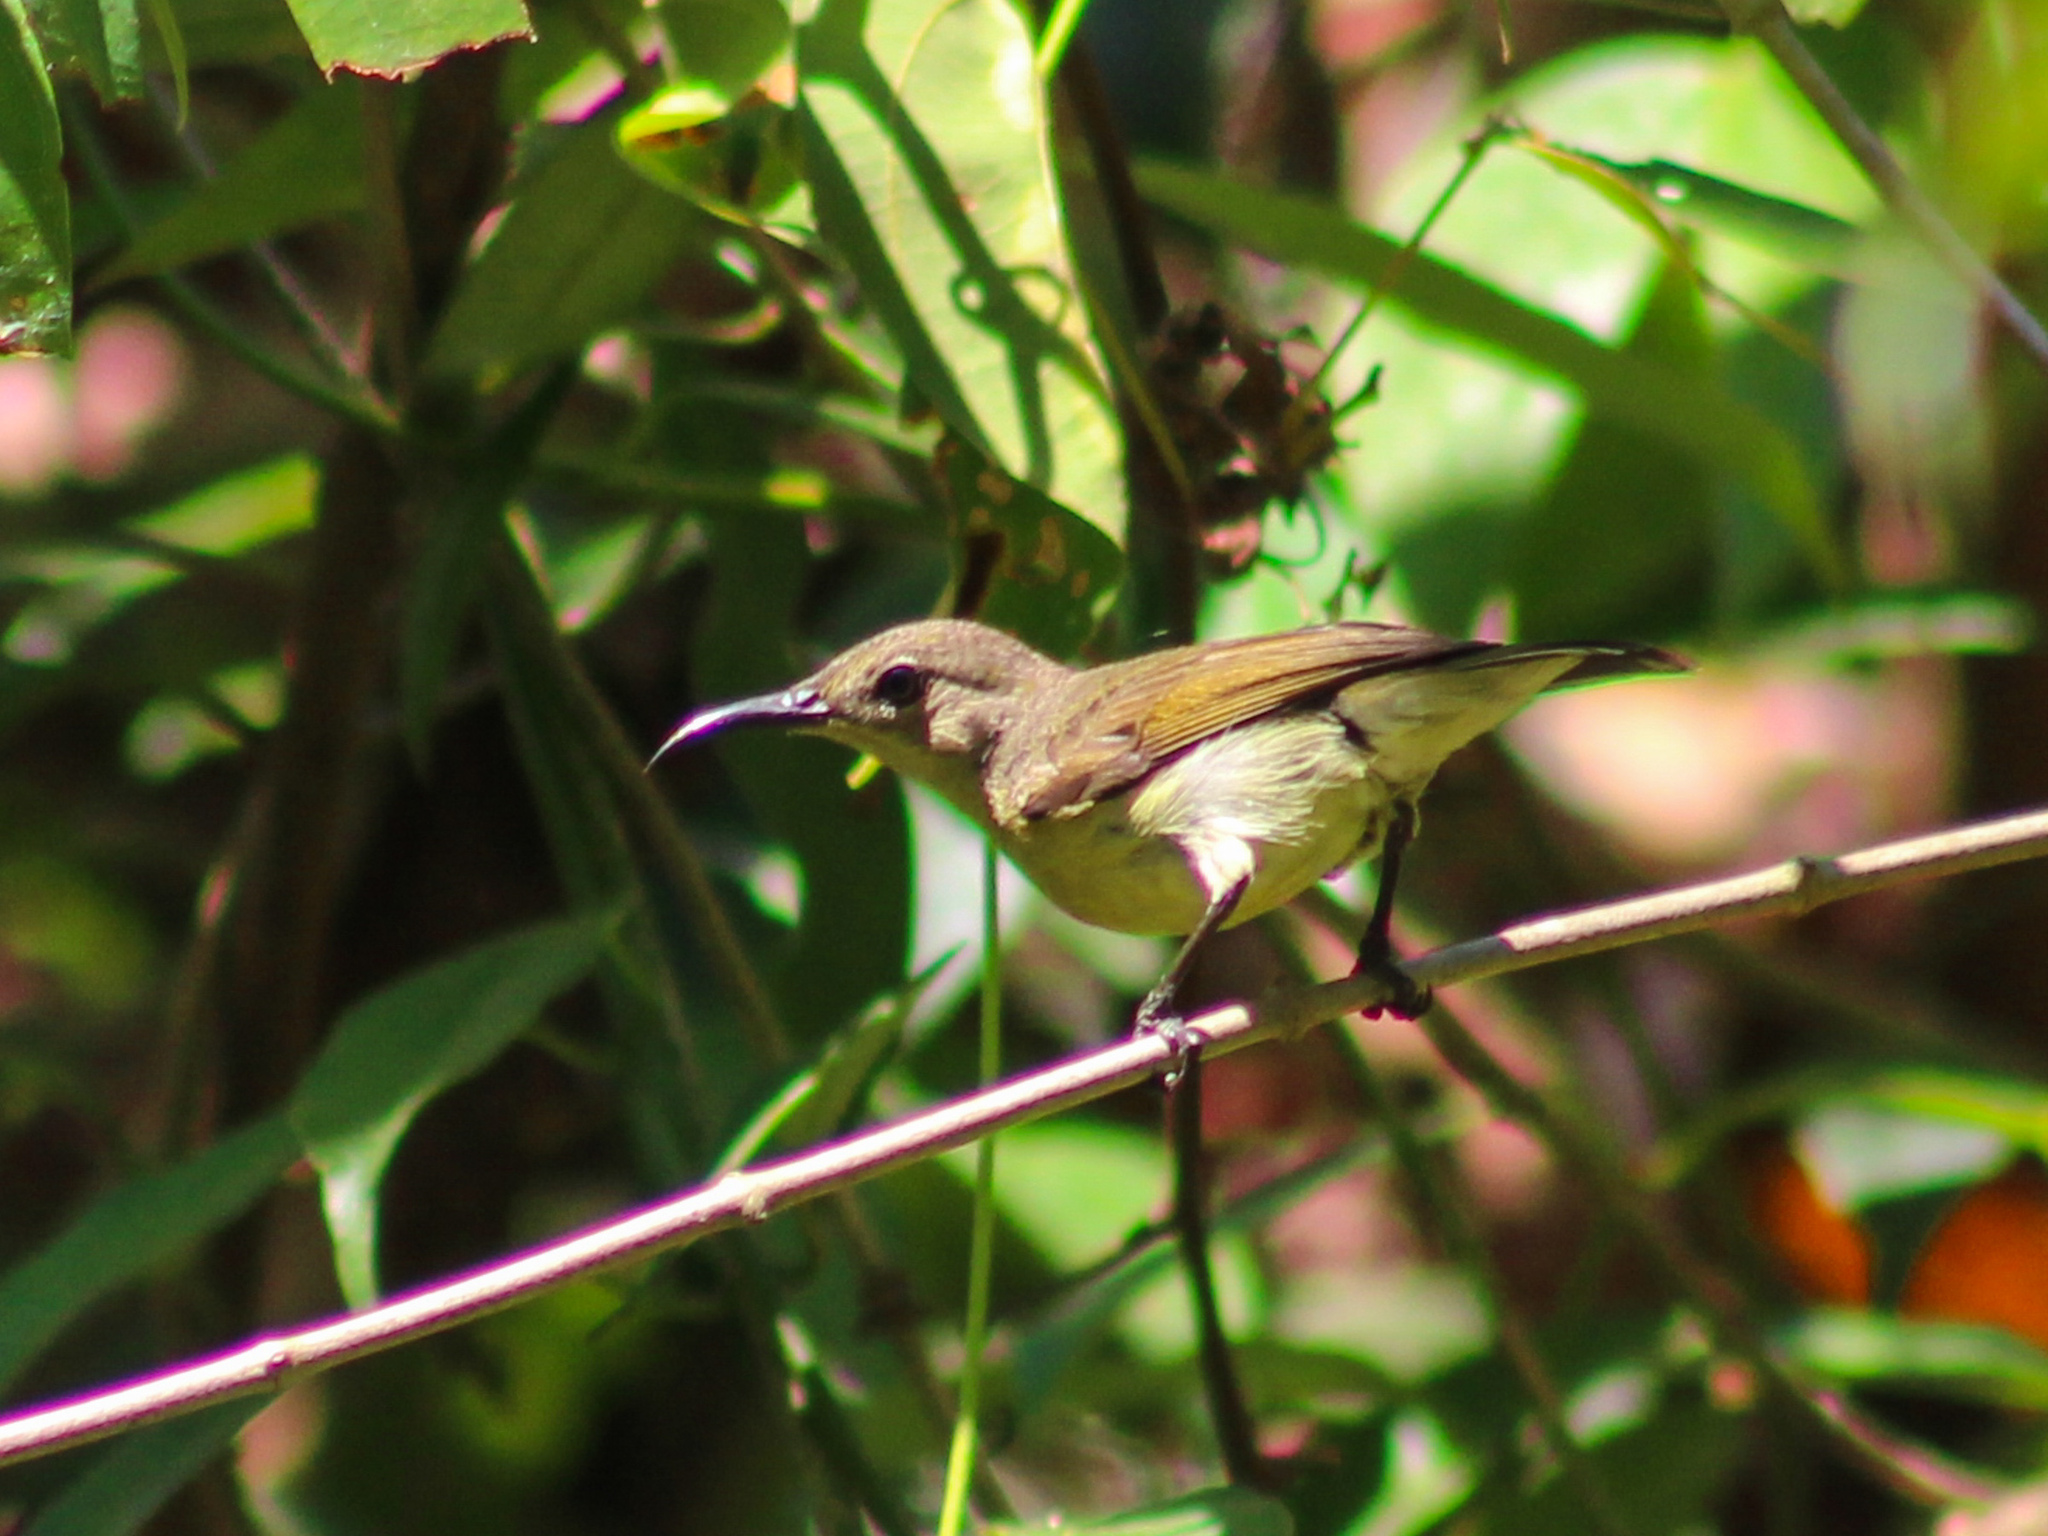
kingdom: Animalia
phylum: Chordata
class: Aves
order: Passeriformes
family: Nectariniidae
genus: Cinnyris
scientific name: Cinnyris
